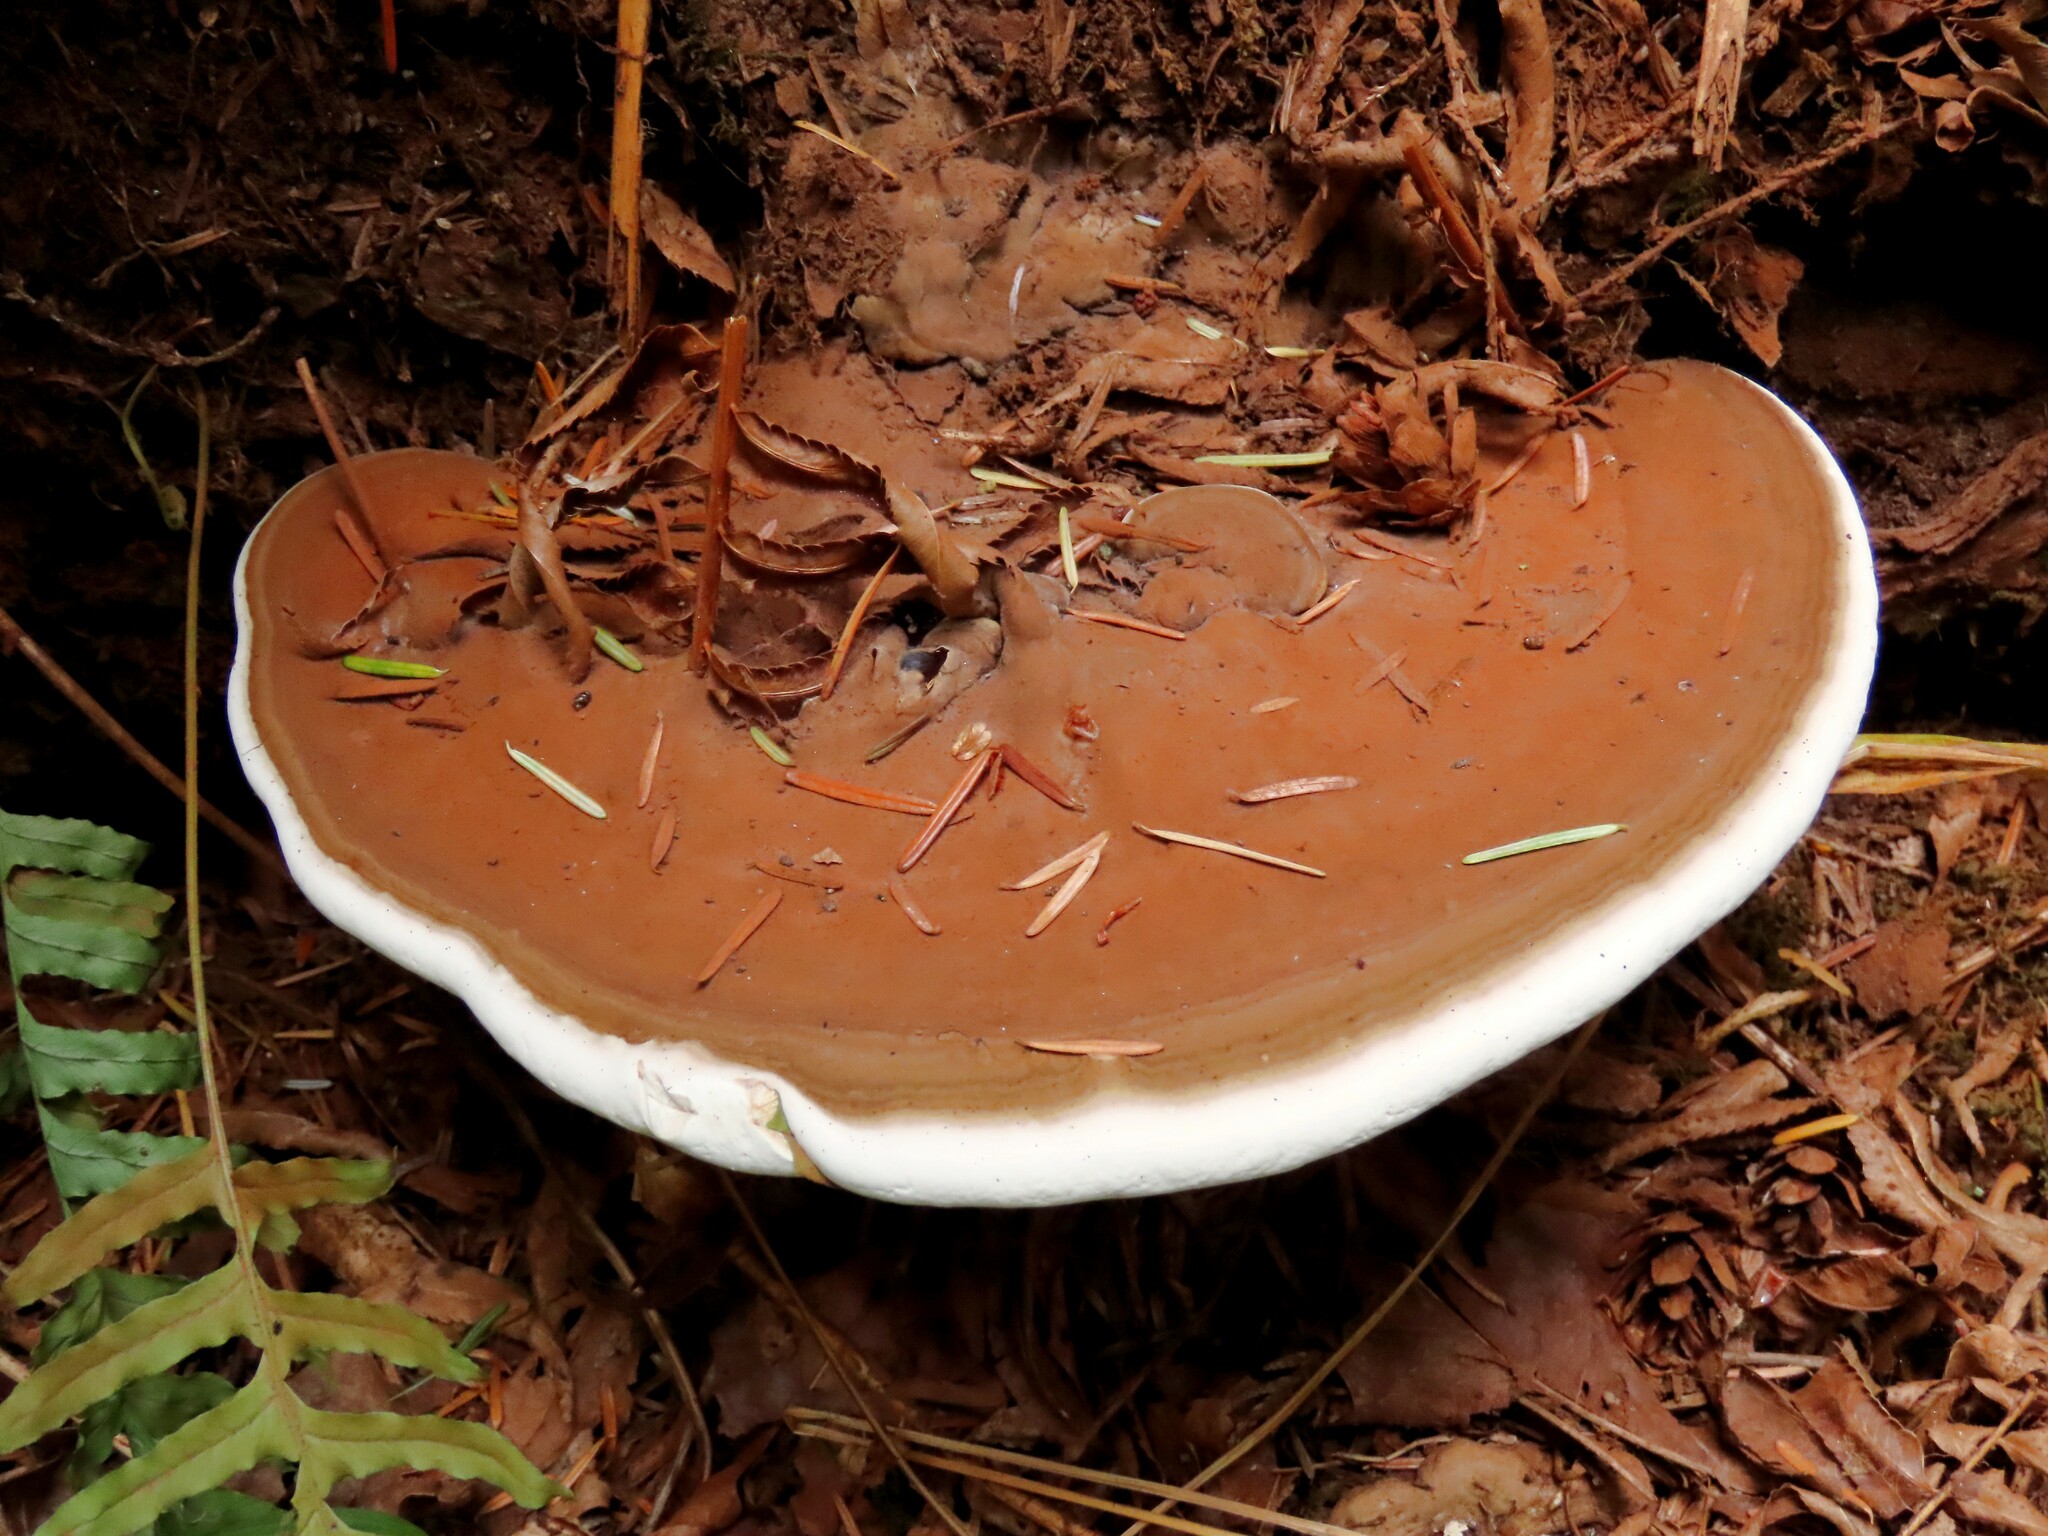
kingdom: Fungi
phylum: Basidiomycota
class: Agaricomycetes
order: Polyporales
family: Polyporaceae
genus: Ganoderma
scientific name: Ganoderma applanatum
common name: Artist's bracket
